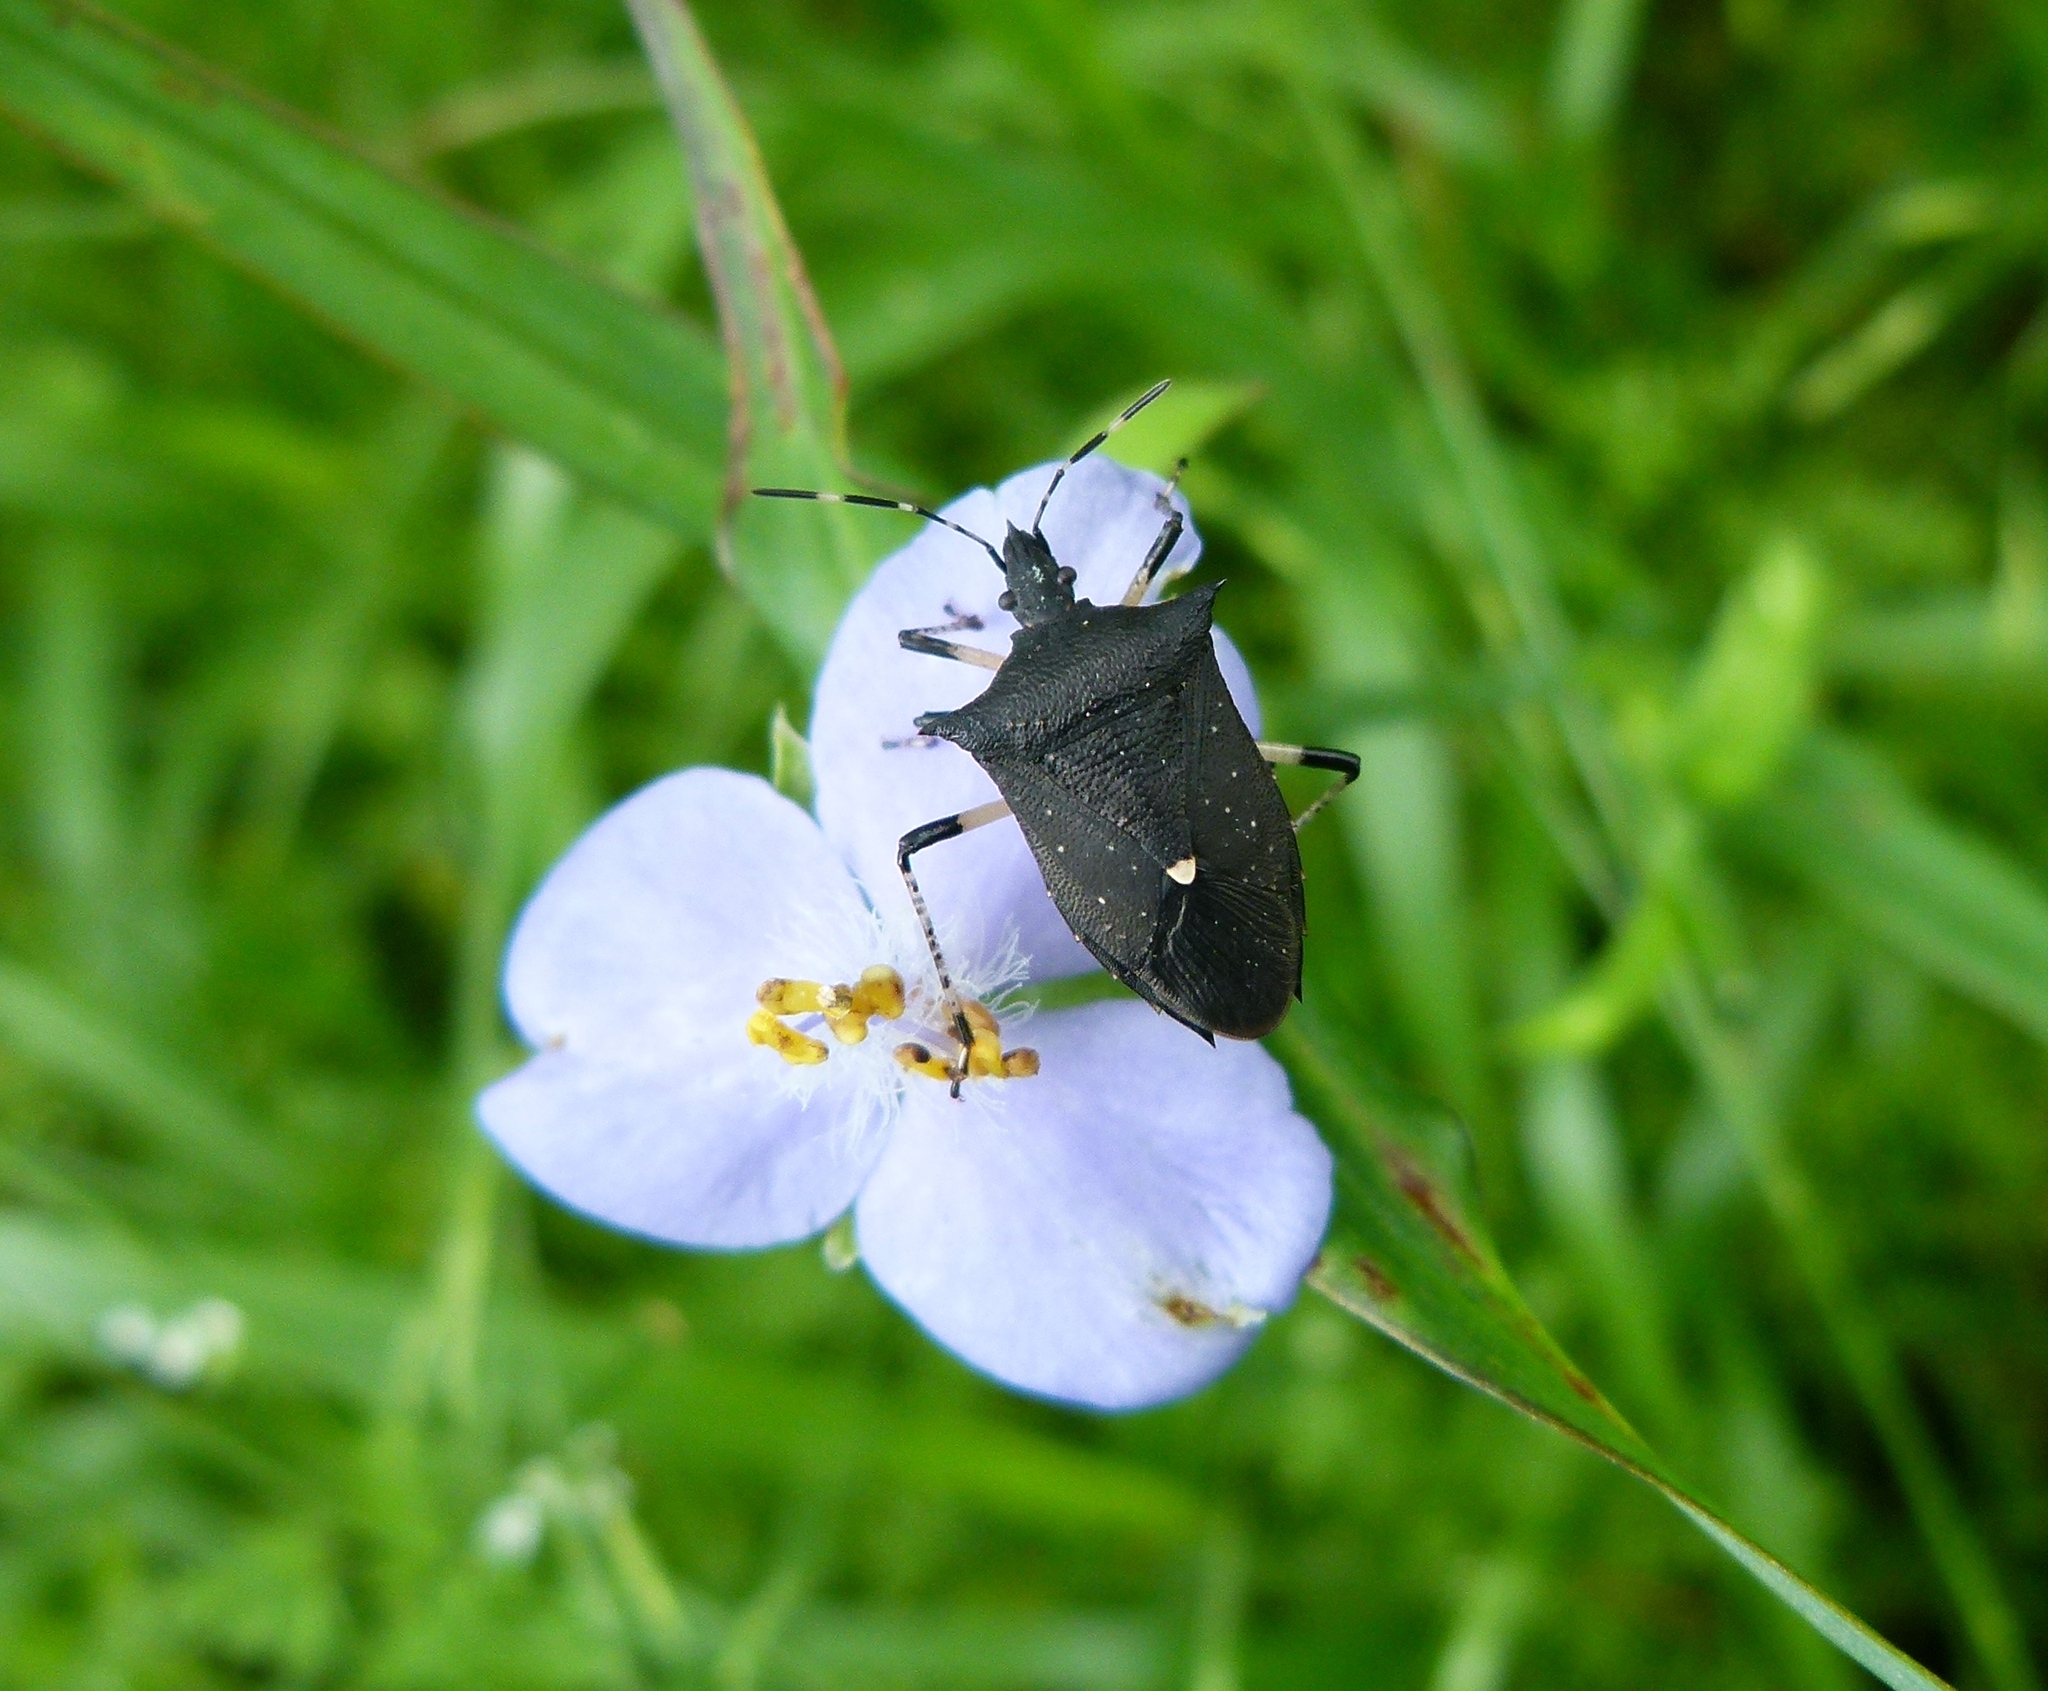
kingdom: Animalia
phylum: Arthropoda
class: Insecta
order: Hemiptera
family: Pentatomidae
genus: Proxys
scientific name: Proxys punctulatus
